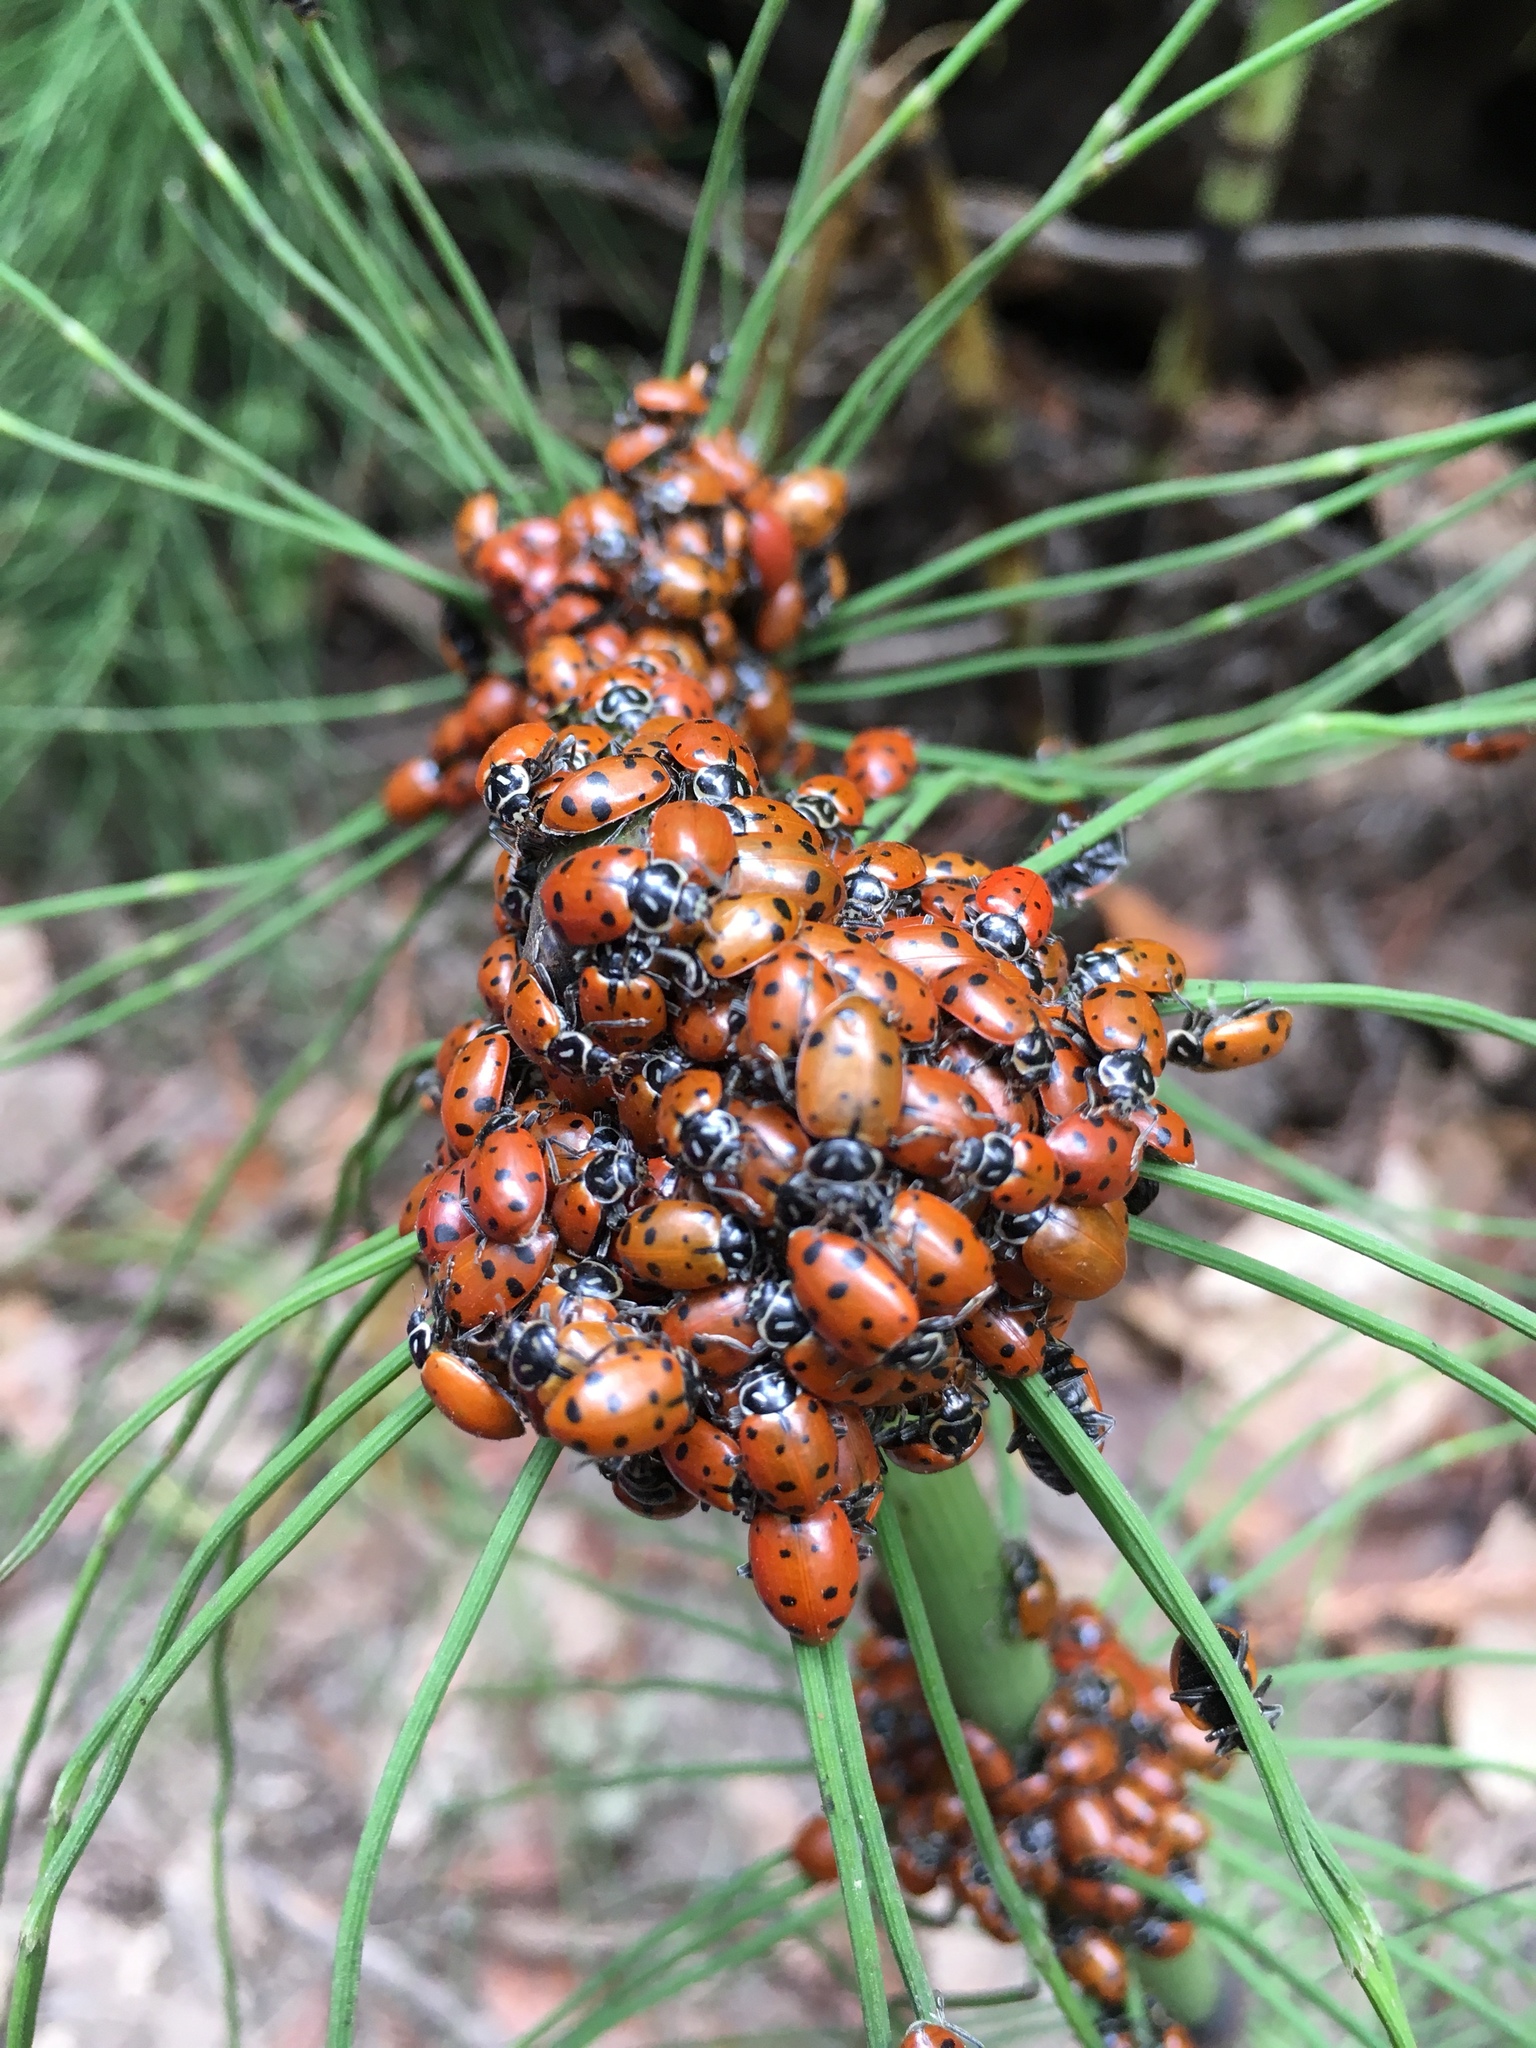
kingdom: Animalia
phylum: Arthropoda
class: Insecta
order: Coleoptera
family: Coccinellidae
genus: Hippodamia
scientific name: Hippodamia convergens
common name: Convergent lady beetle
